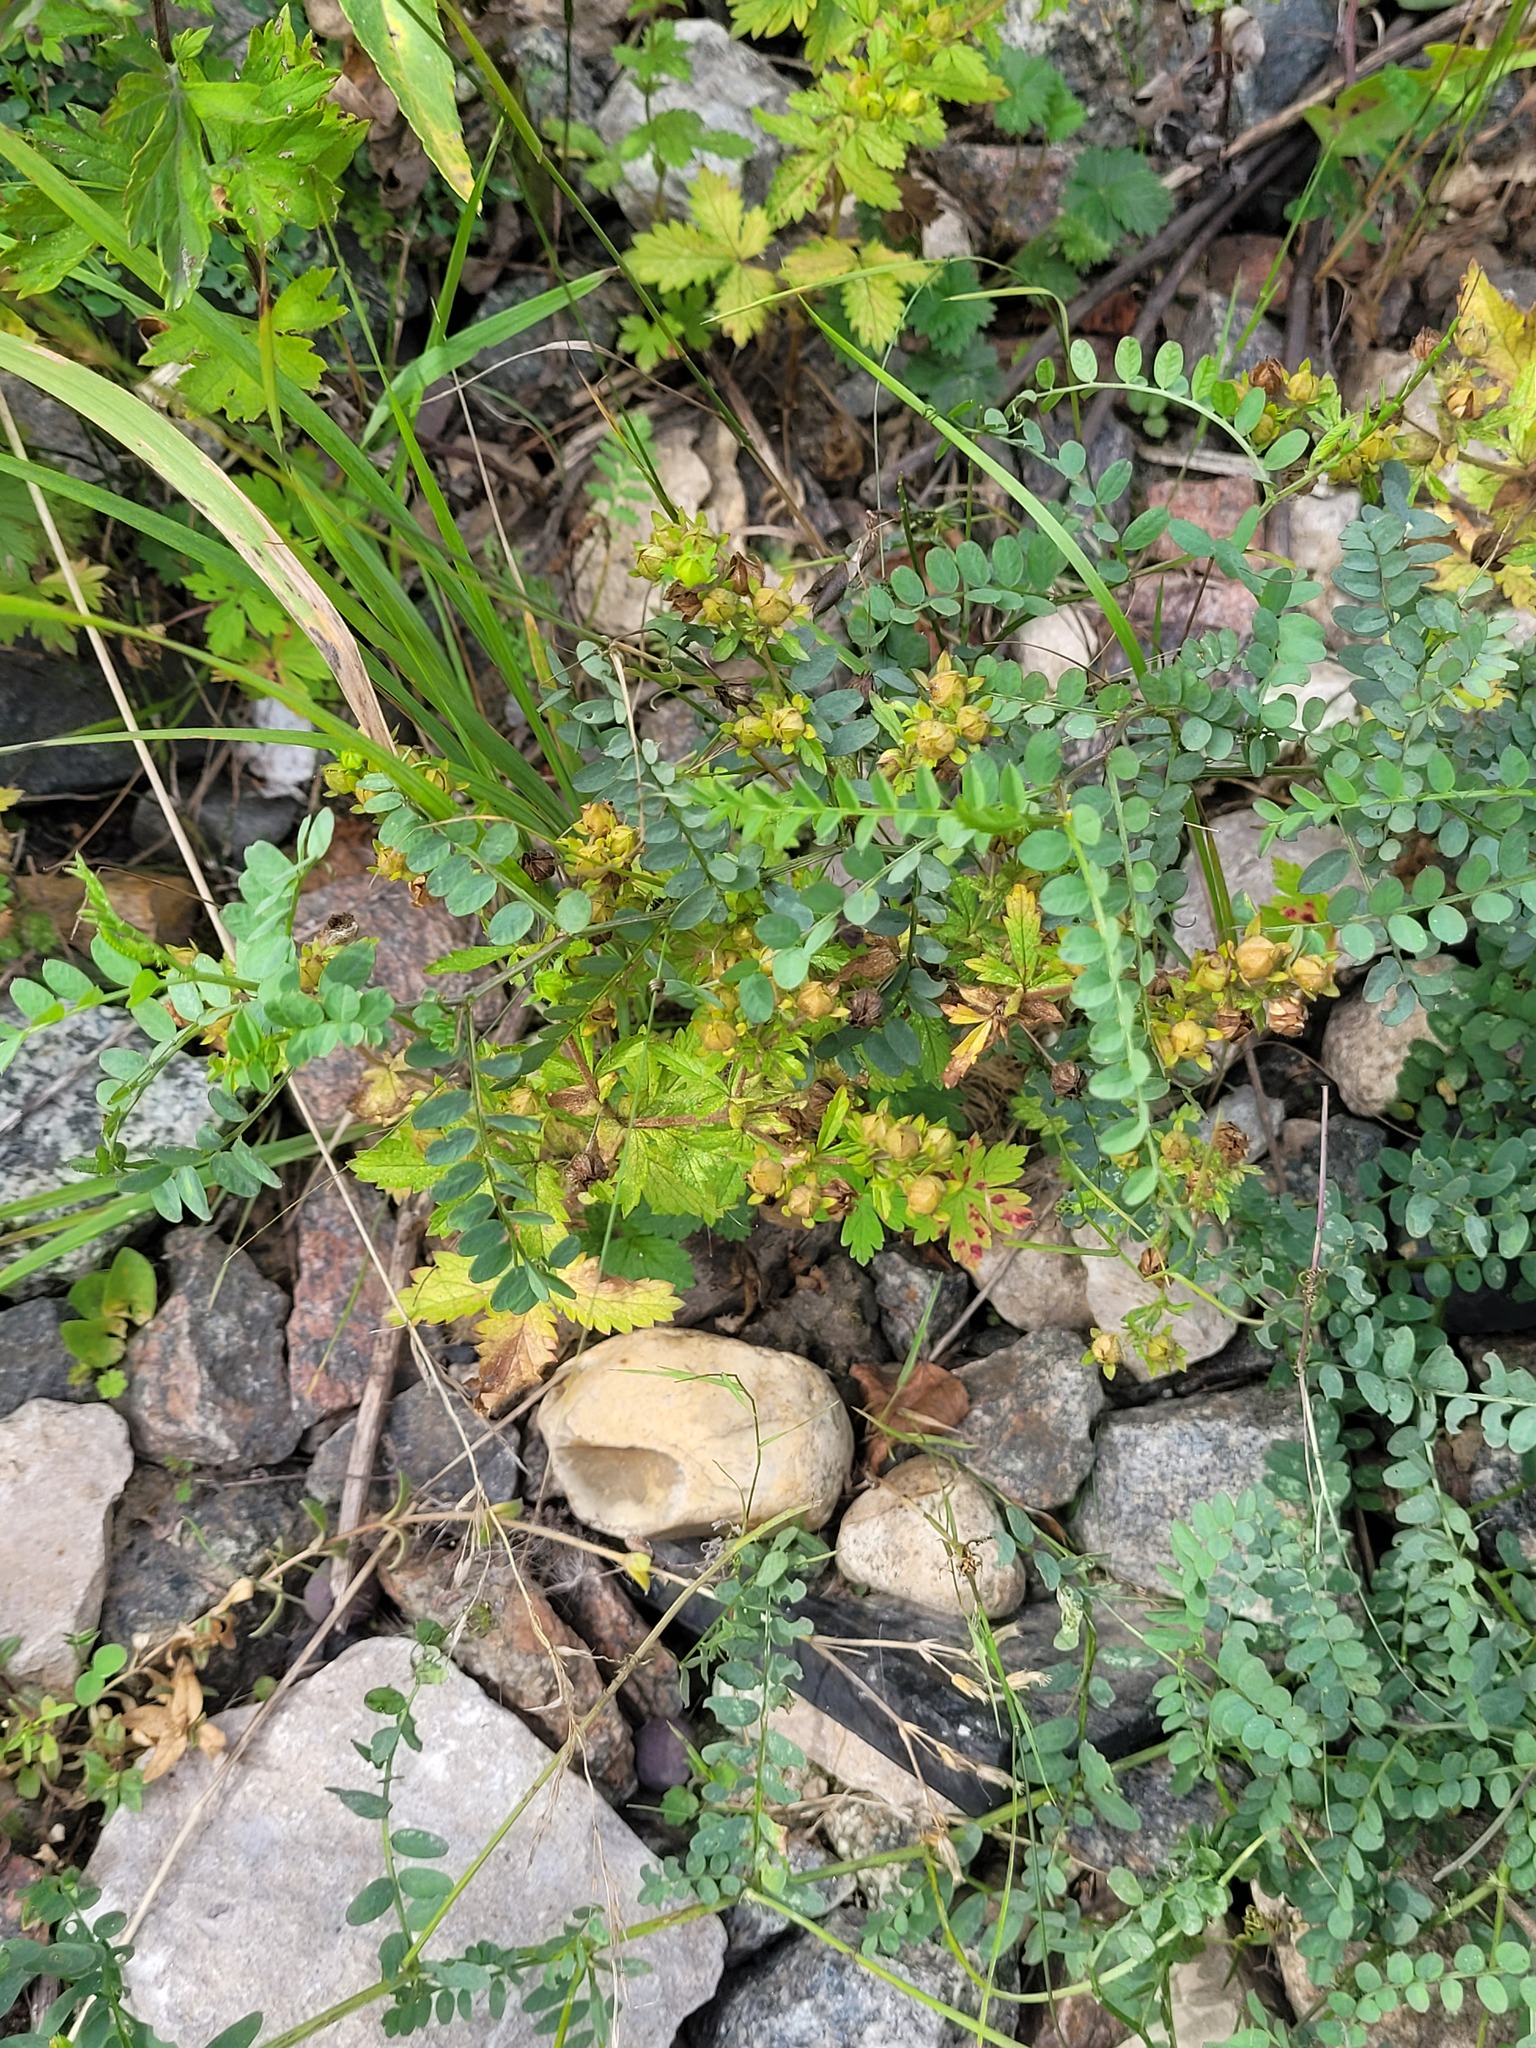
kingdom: Plantae
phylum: Tracheophyta
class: Magnoliopsida
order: Fabales
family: Fabaceae
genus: Vicia
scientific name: Vicia sylvatica
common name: Wood vetch
